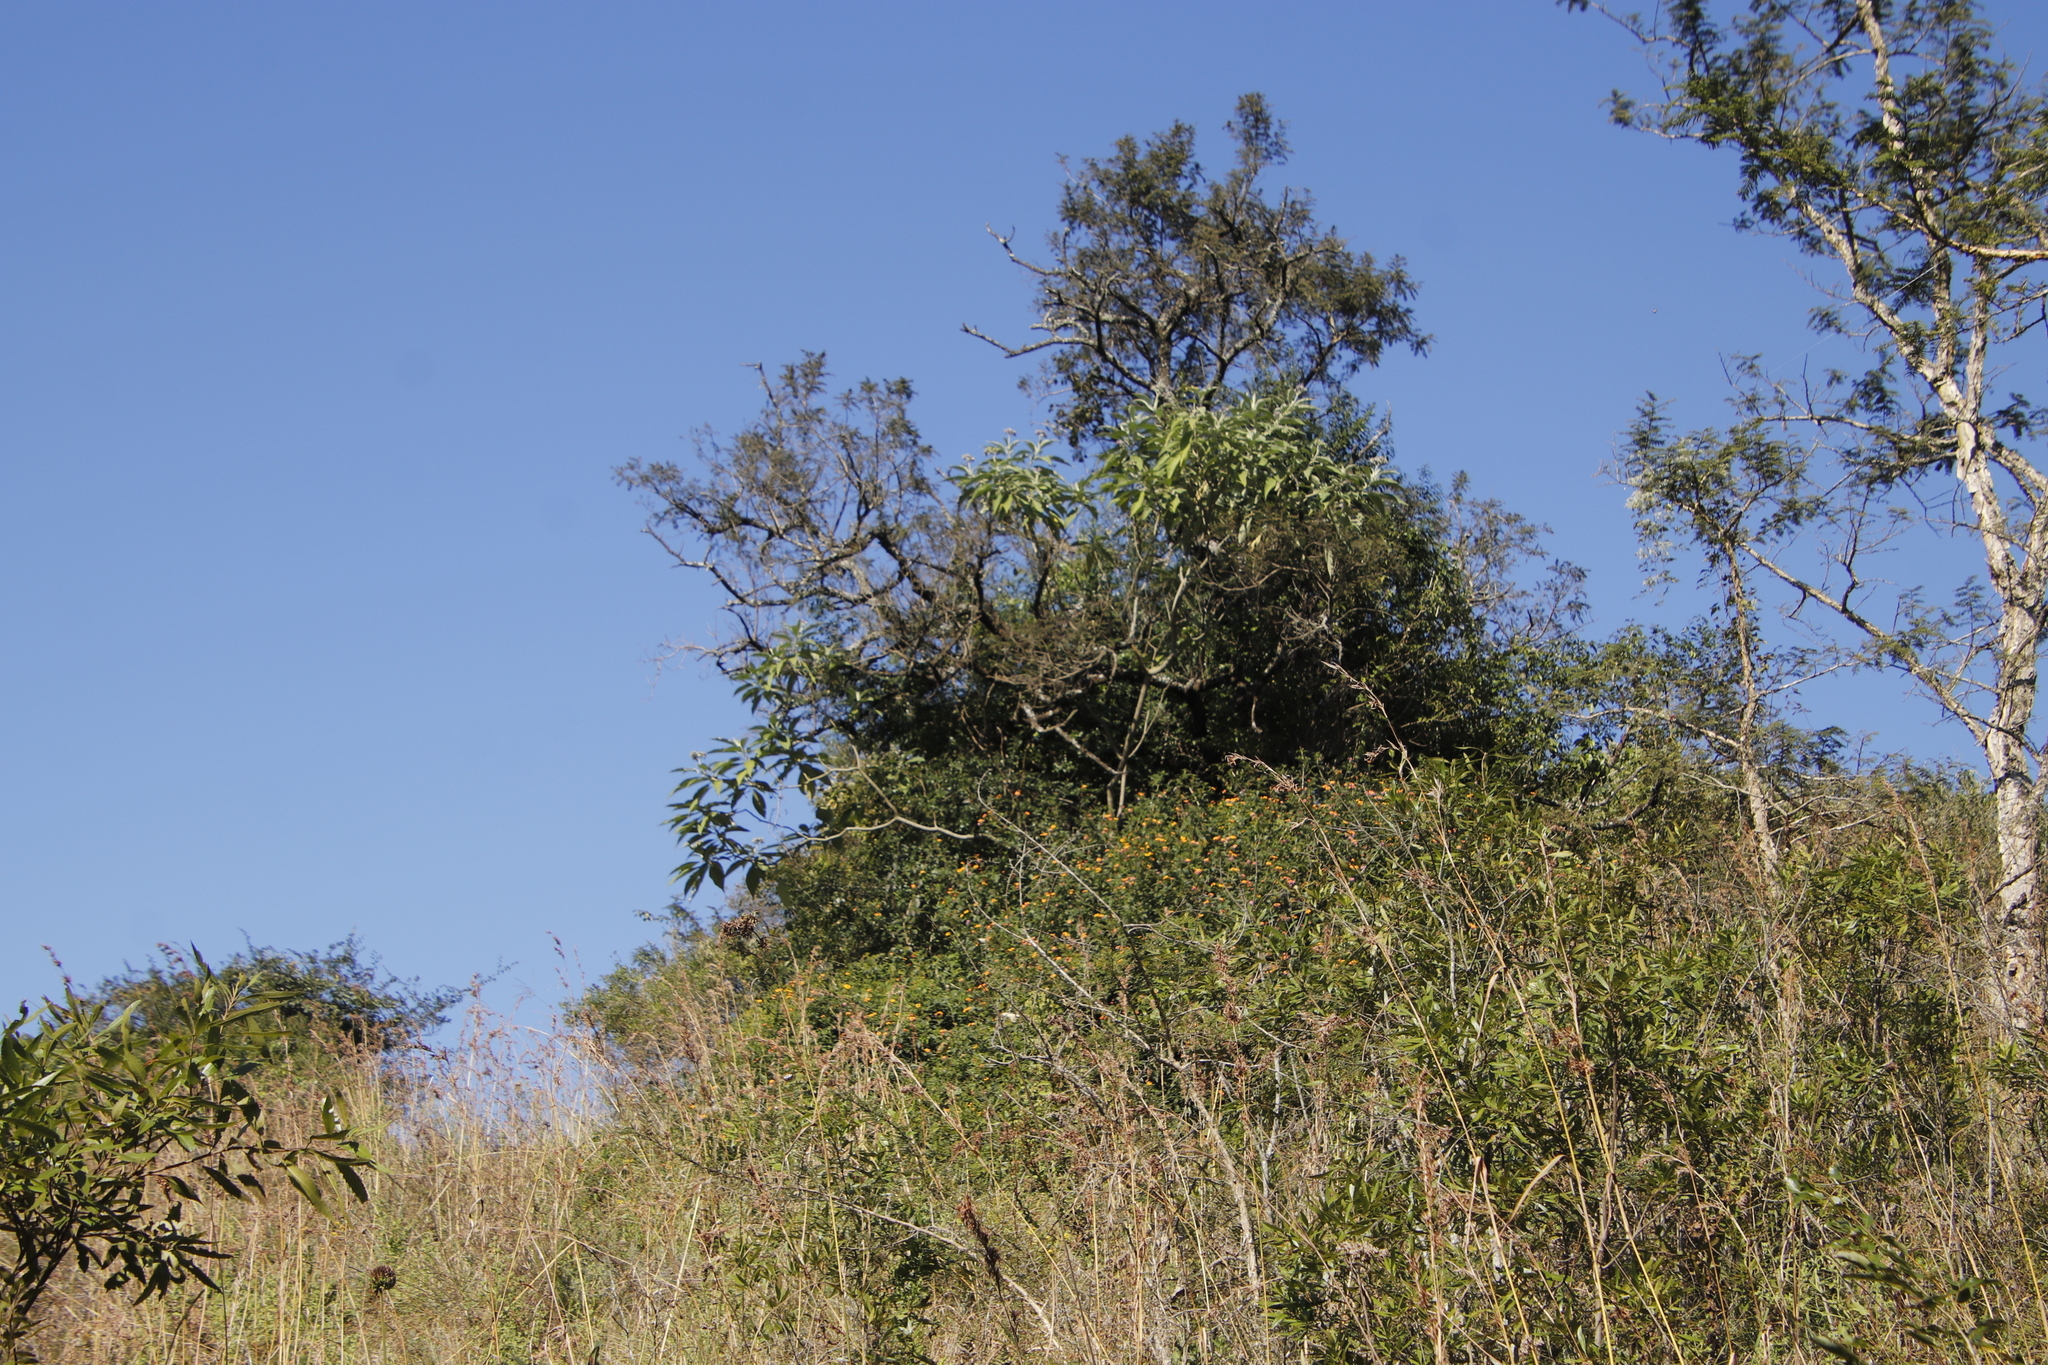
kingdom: Plantae
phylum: Tracheophyta
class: Magnoliopsida
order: Lamiales
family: Verbenaceae
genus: Lantana
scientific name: Lantana camara
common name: Lantana
